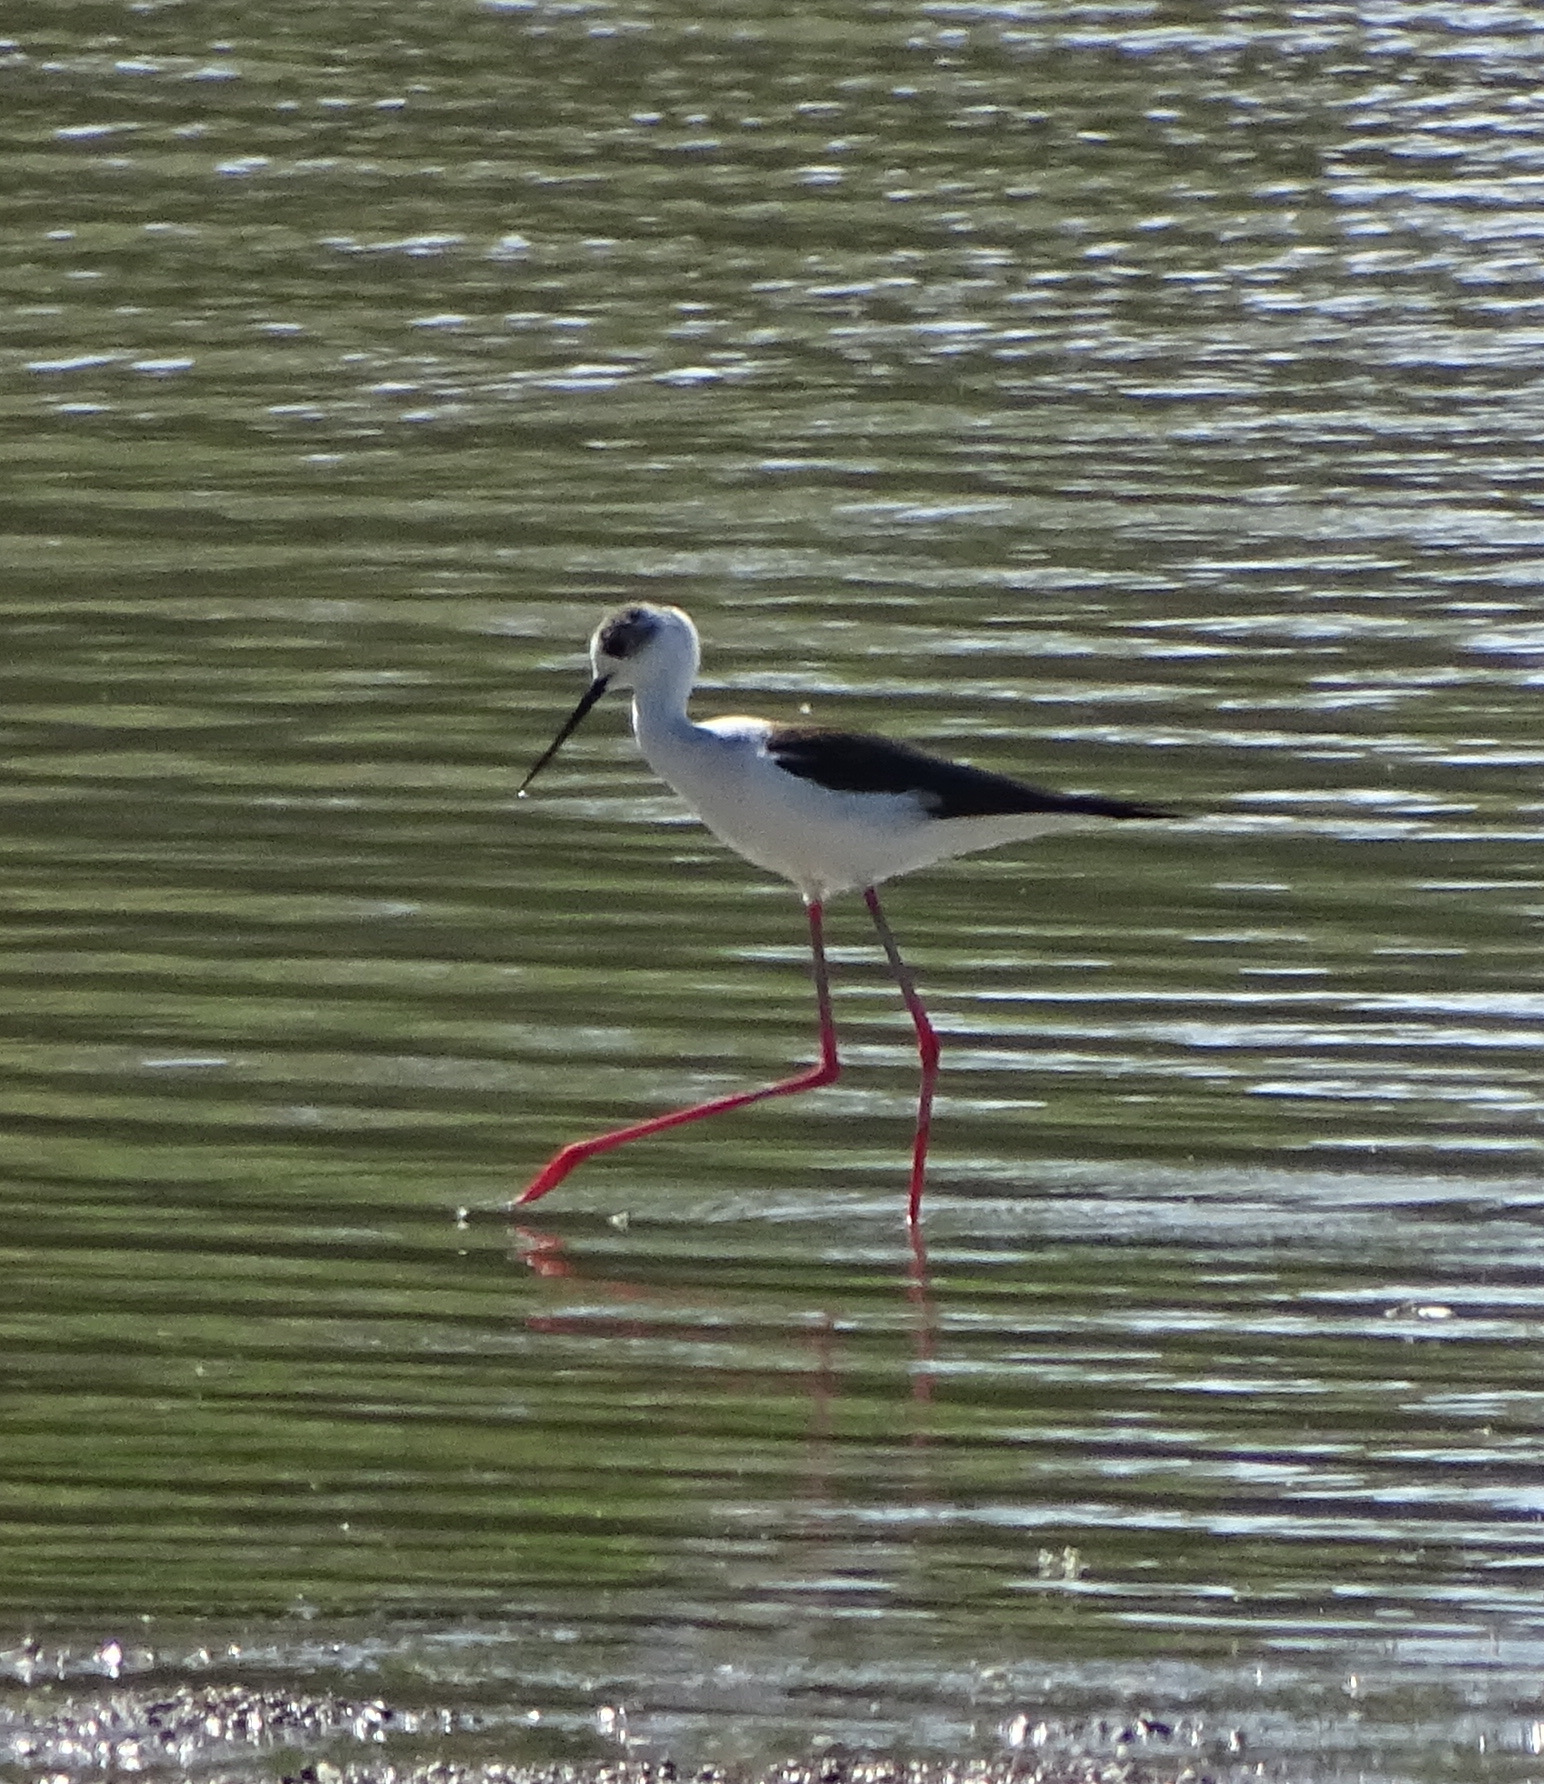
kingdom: Animalia
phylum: Chordata
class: Aves
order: Charadriiformes
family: Recurvirostridae
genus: Himantopus
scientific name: Himantopus himantopus
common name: Black-winged stilt
